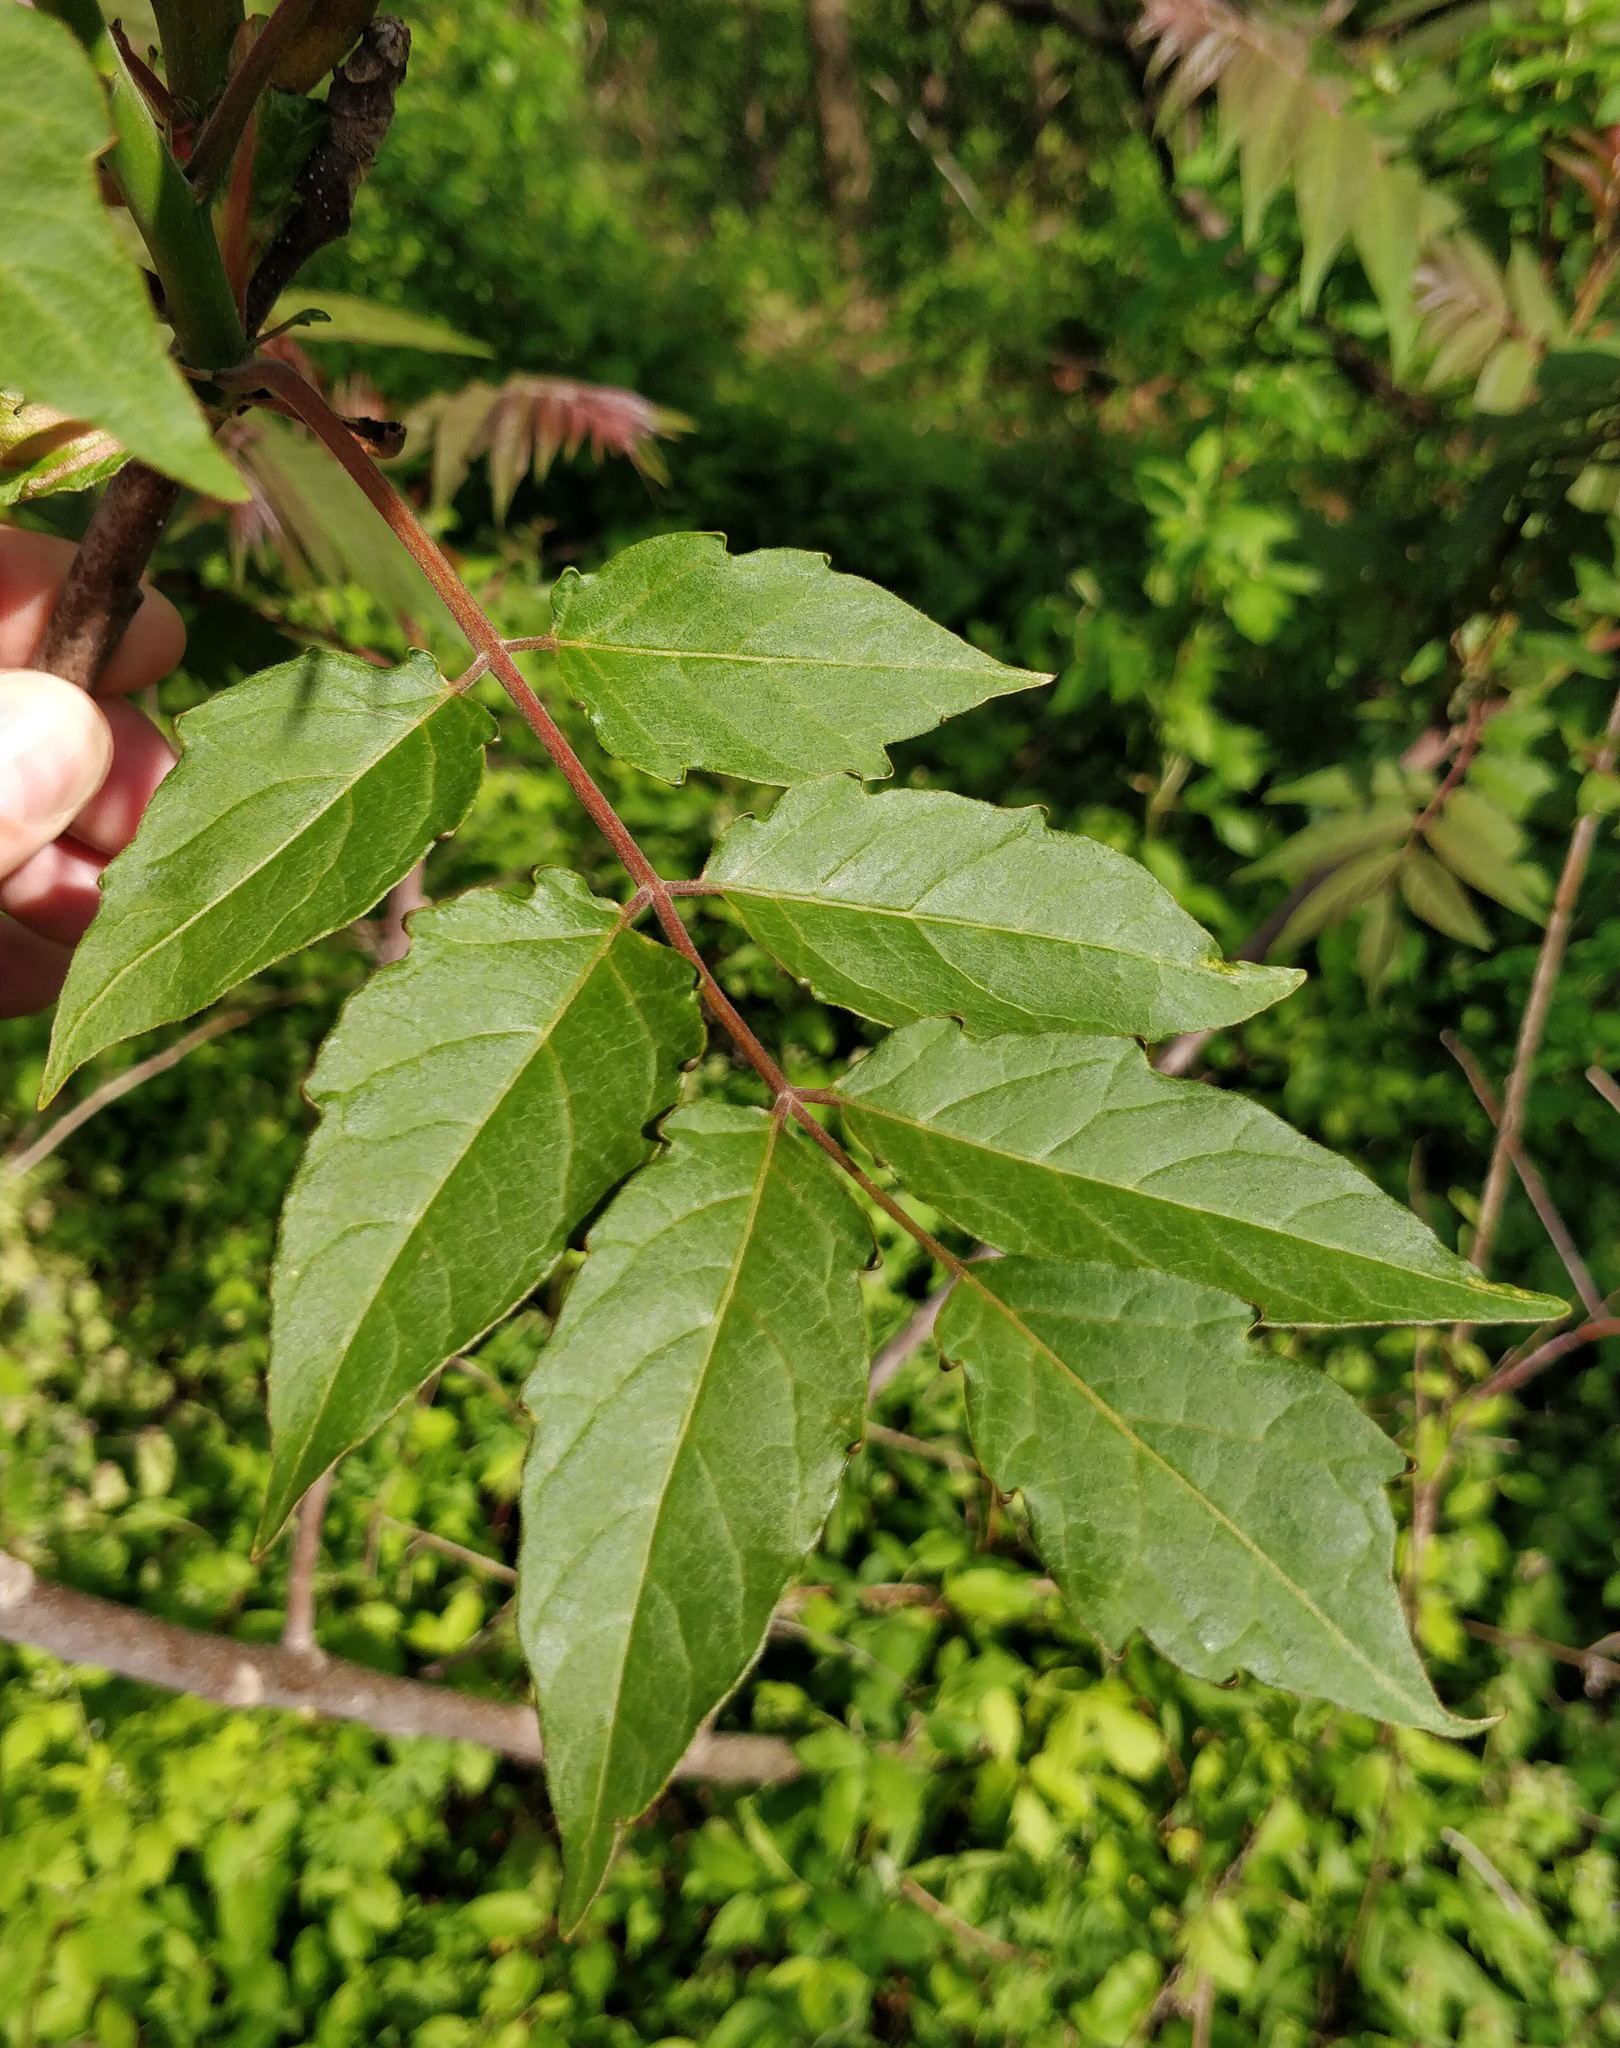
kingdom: Plantae
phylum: Tracheophyta
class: Magnoliopsida
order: Sapindales
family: Simaroubaceae
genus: Ailanthus
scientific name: Ailanthus altissima
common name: Tree-of-heaven
